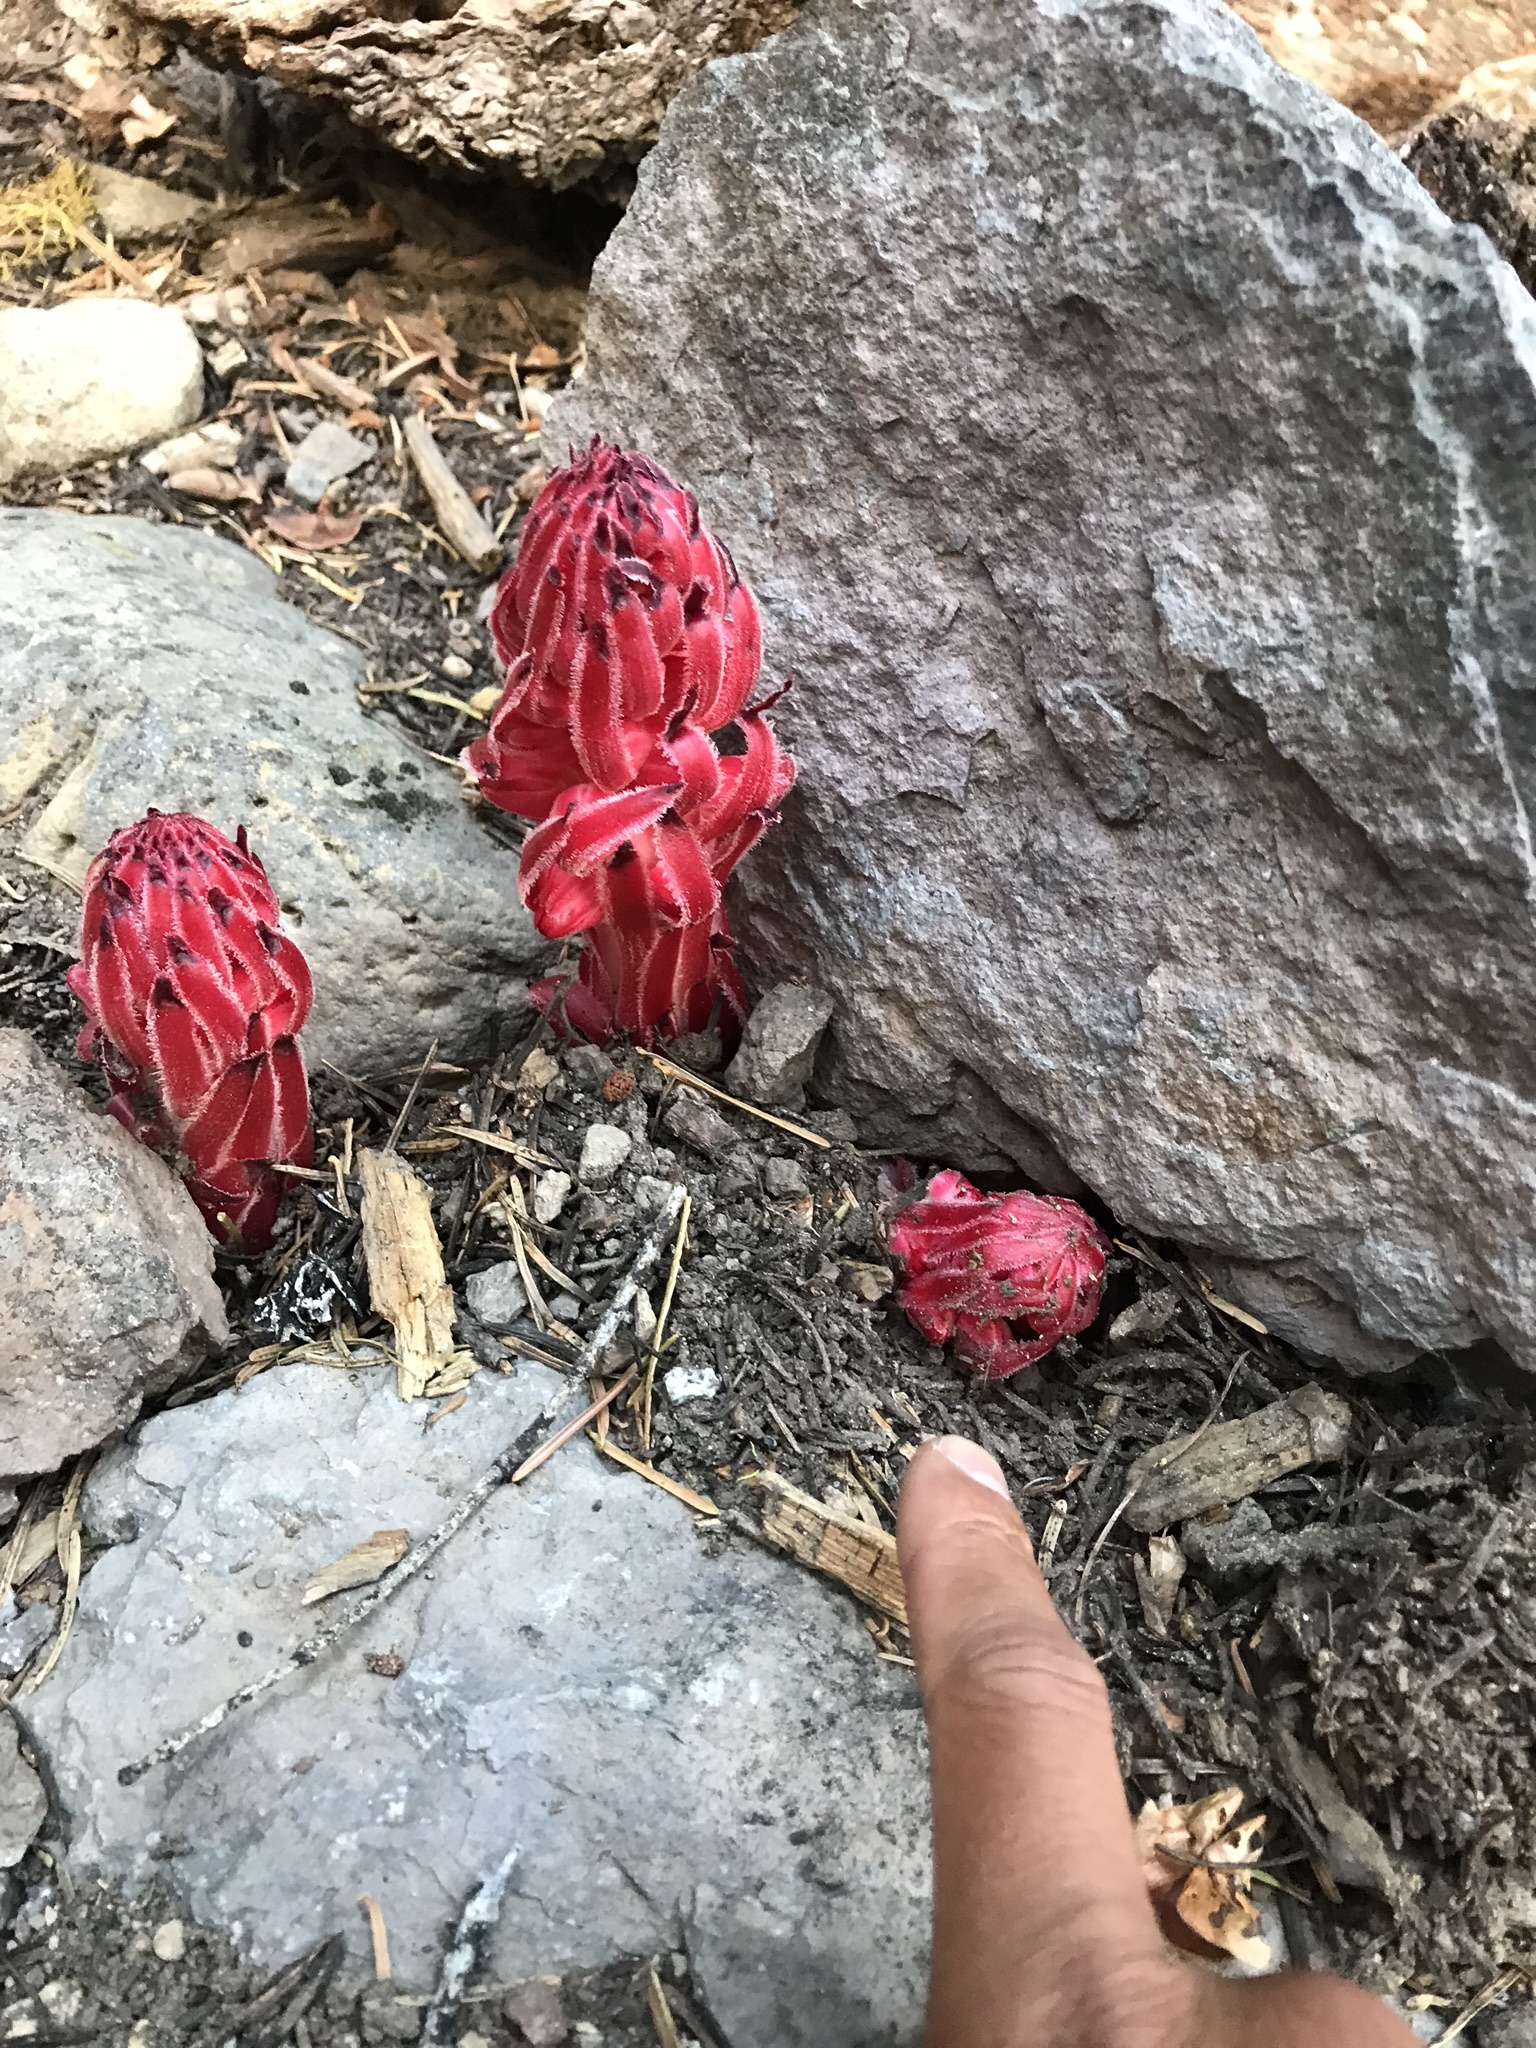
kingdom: Plantae
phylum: Tracheophyta
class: Magnoliopsida
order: Ericales
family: Ericaceae
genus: Sarcodes
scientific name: Sarcodes sanguinea
